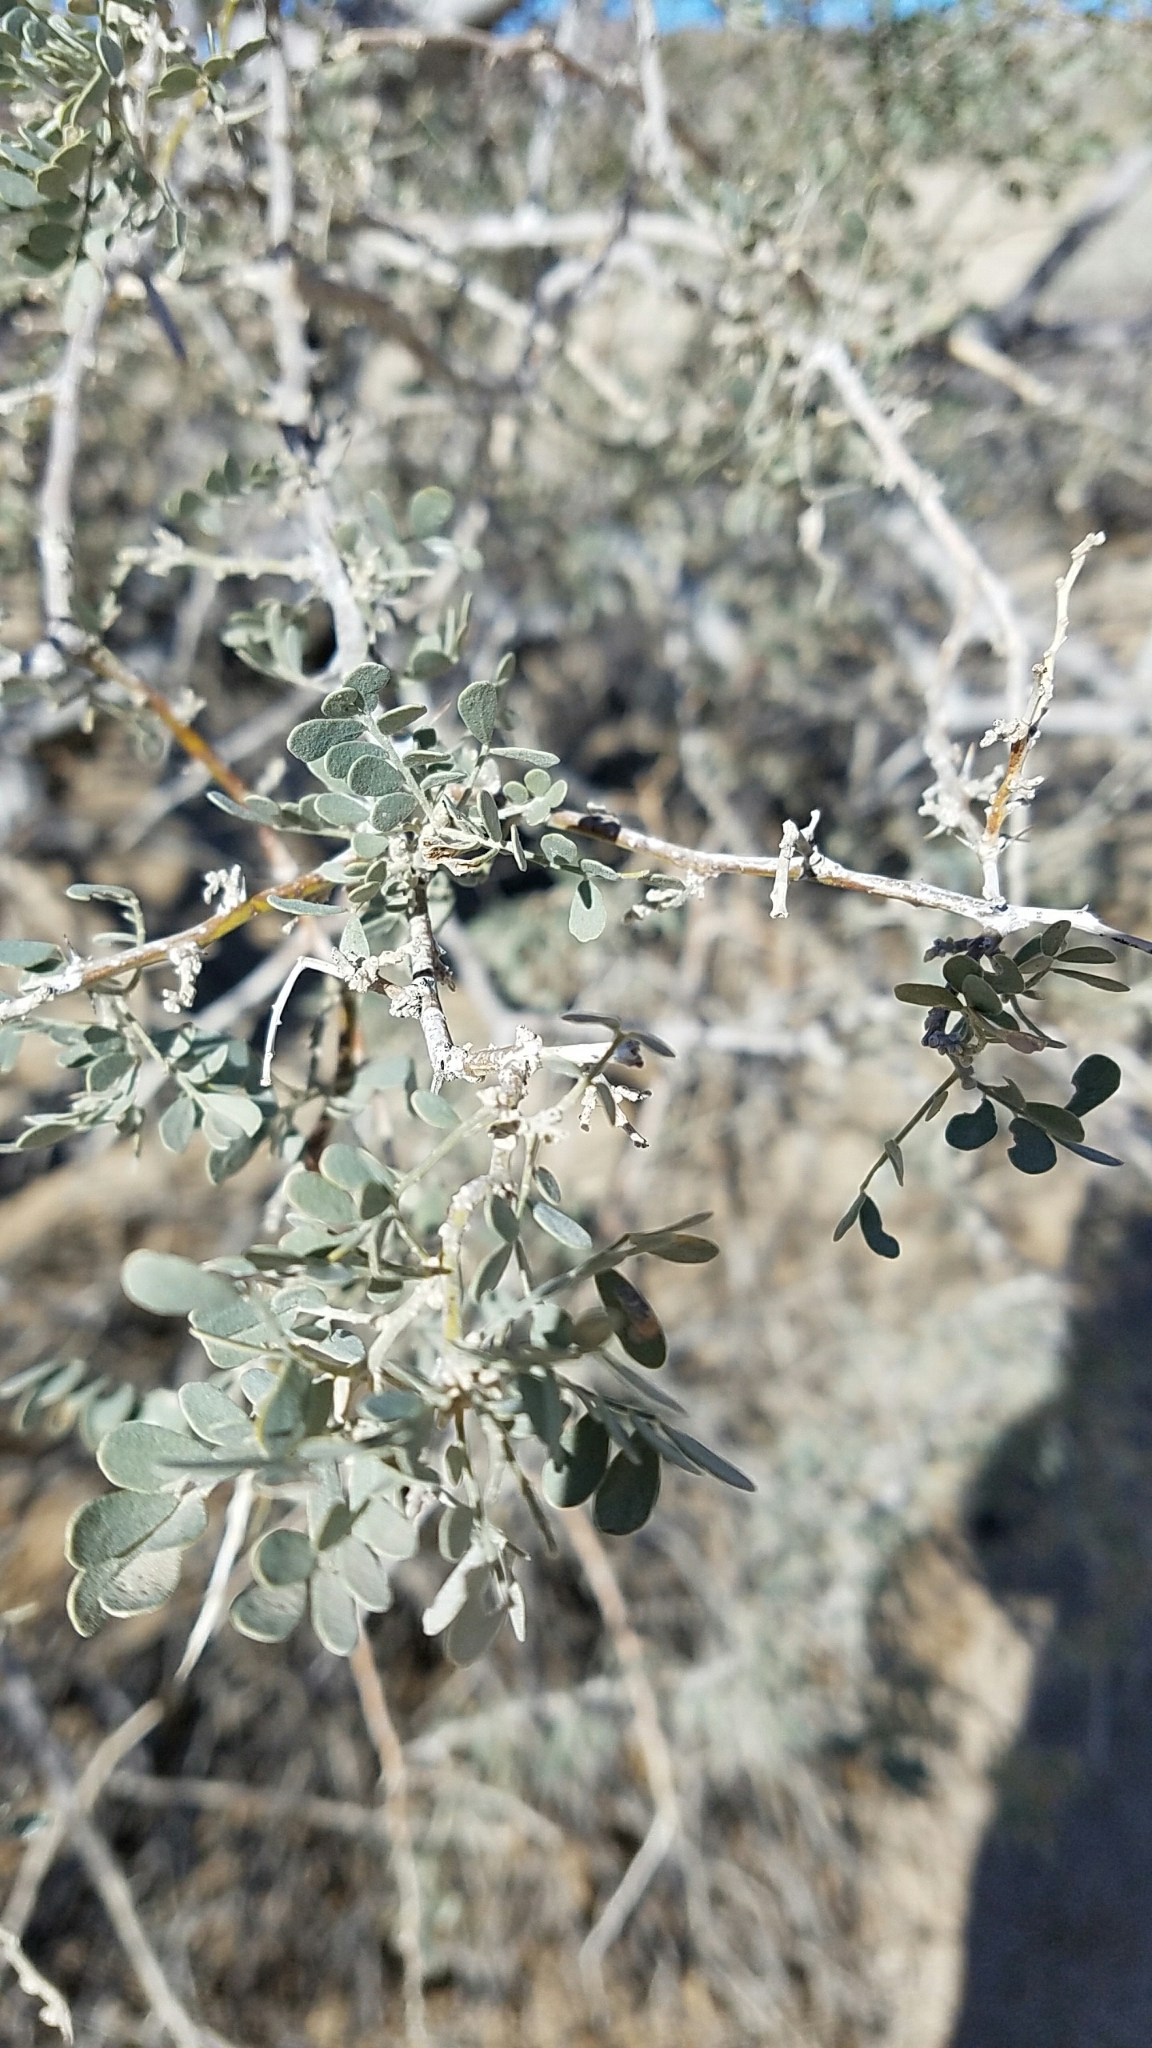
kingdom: Plantae
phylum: Tracheophyta
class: Magnoliopsida
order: Fabales
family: Fabaceae
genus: Olneya
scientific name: Olneya tesota
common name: Desert ironwood
